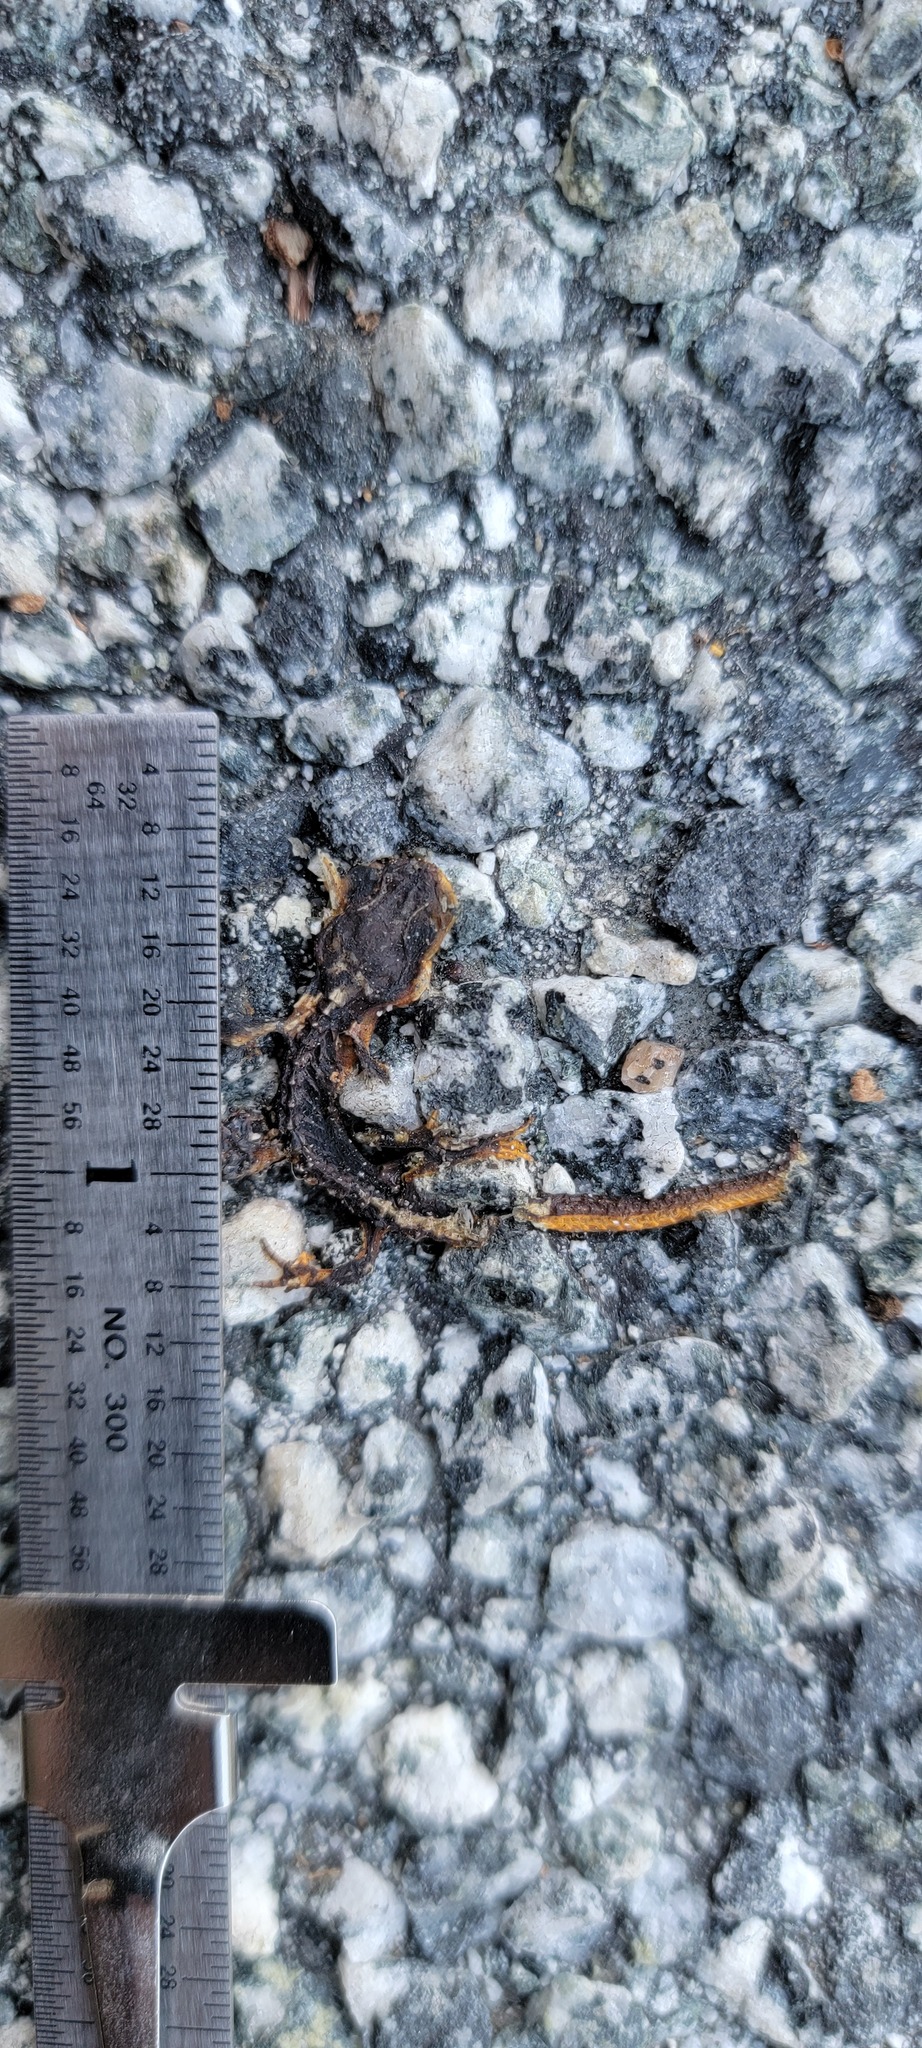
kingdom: Animalia
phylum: Chordata
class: Amphibia
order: Caudata
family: Salamandridae
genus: Taricha
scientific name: Taricha
